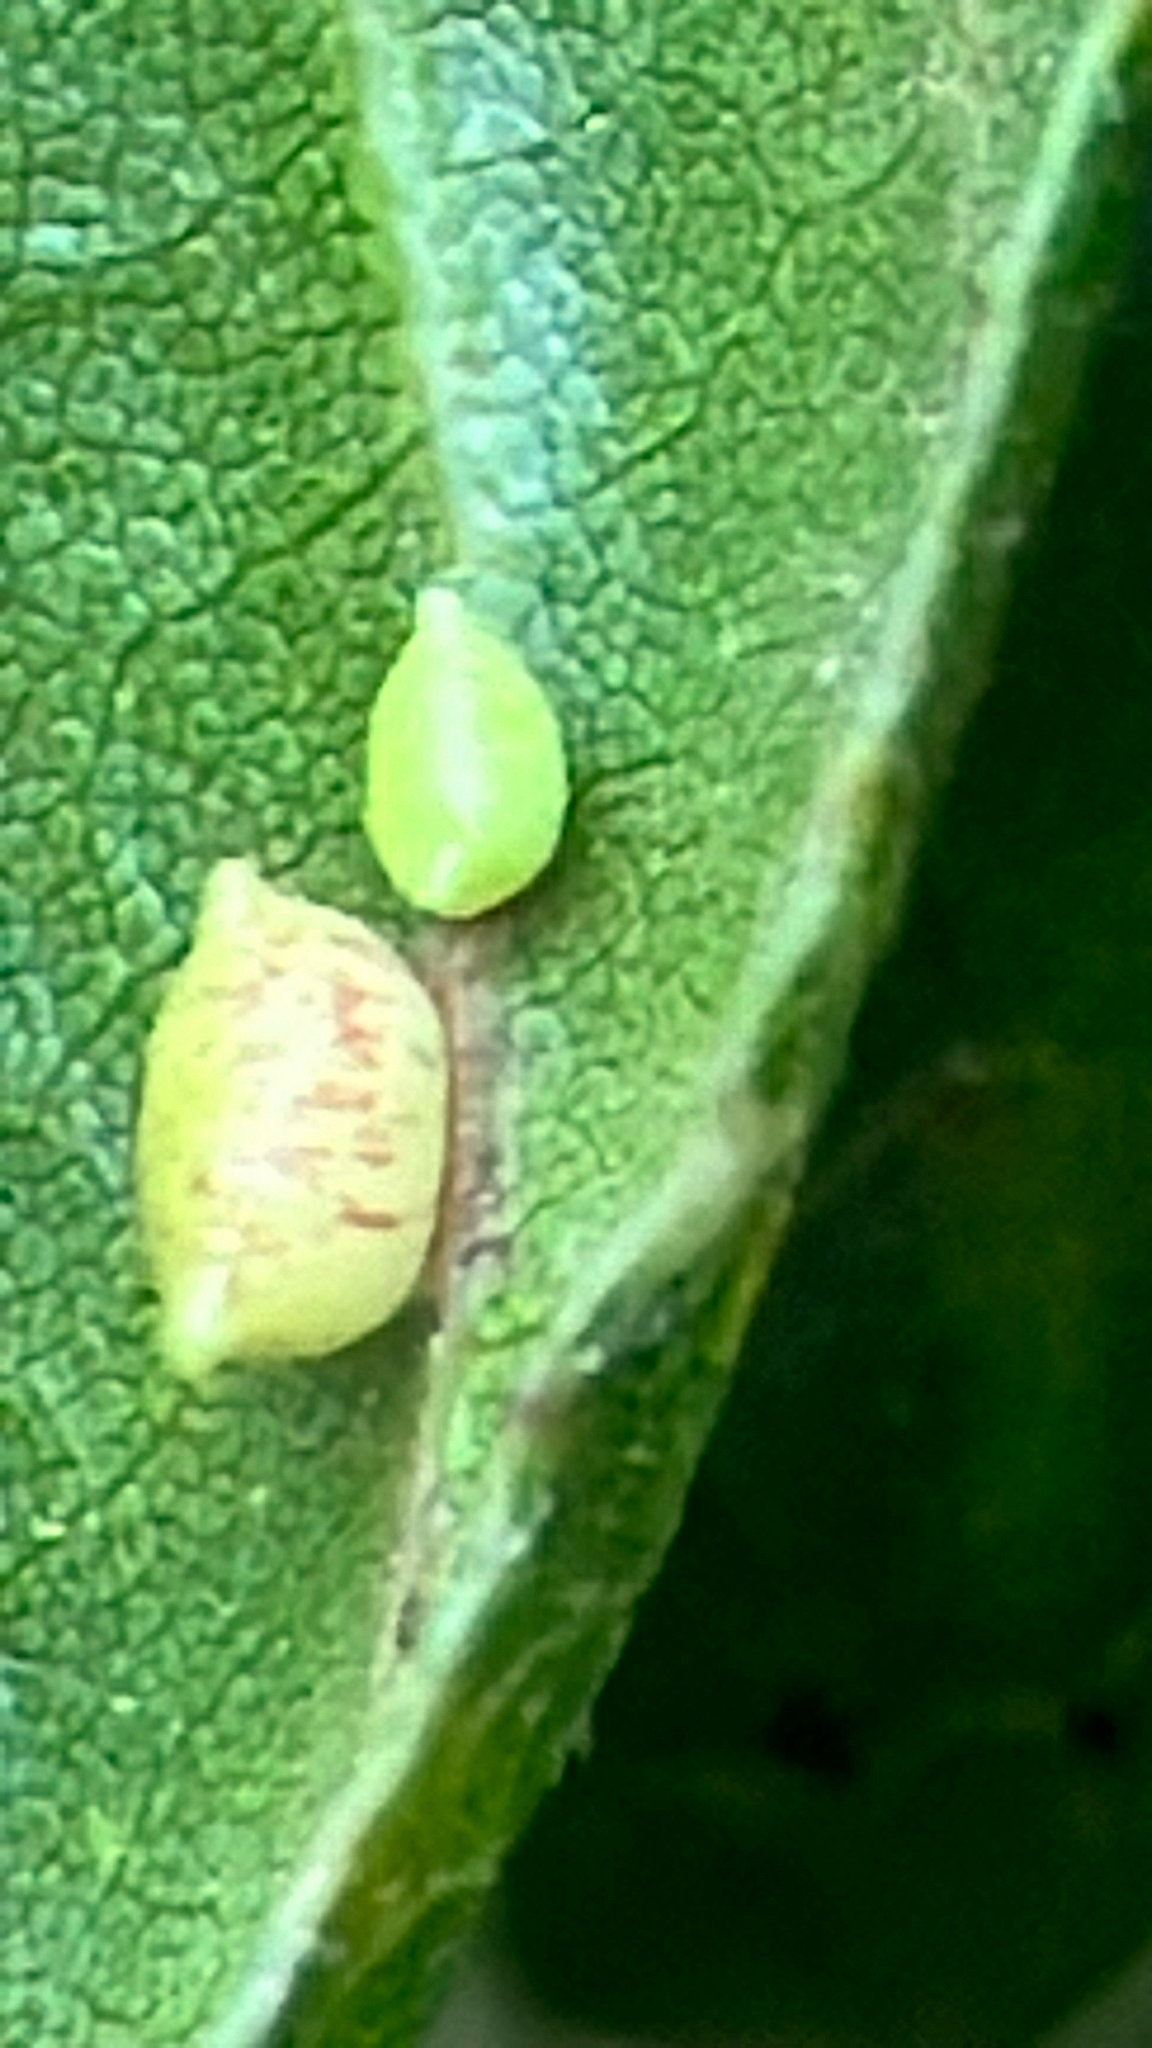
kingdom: Animalia
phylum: Arthropoda
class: Insecta
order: Hymenoptera
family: Cynipidae
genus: Dryocosmus
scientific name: Dryocosmus
